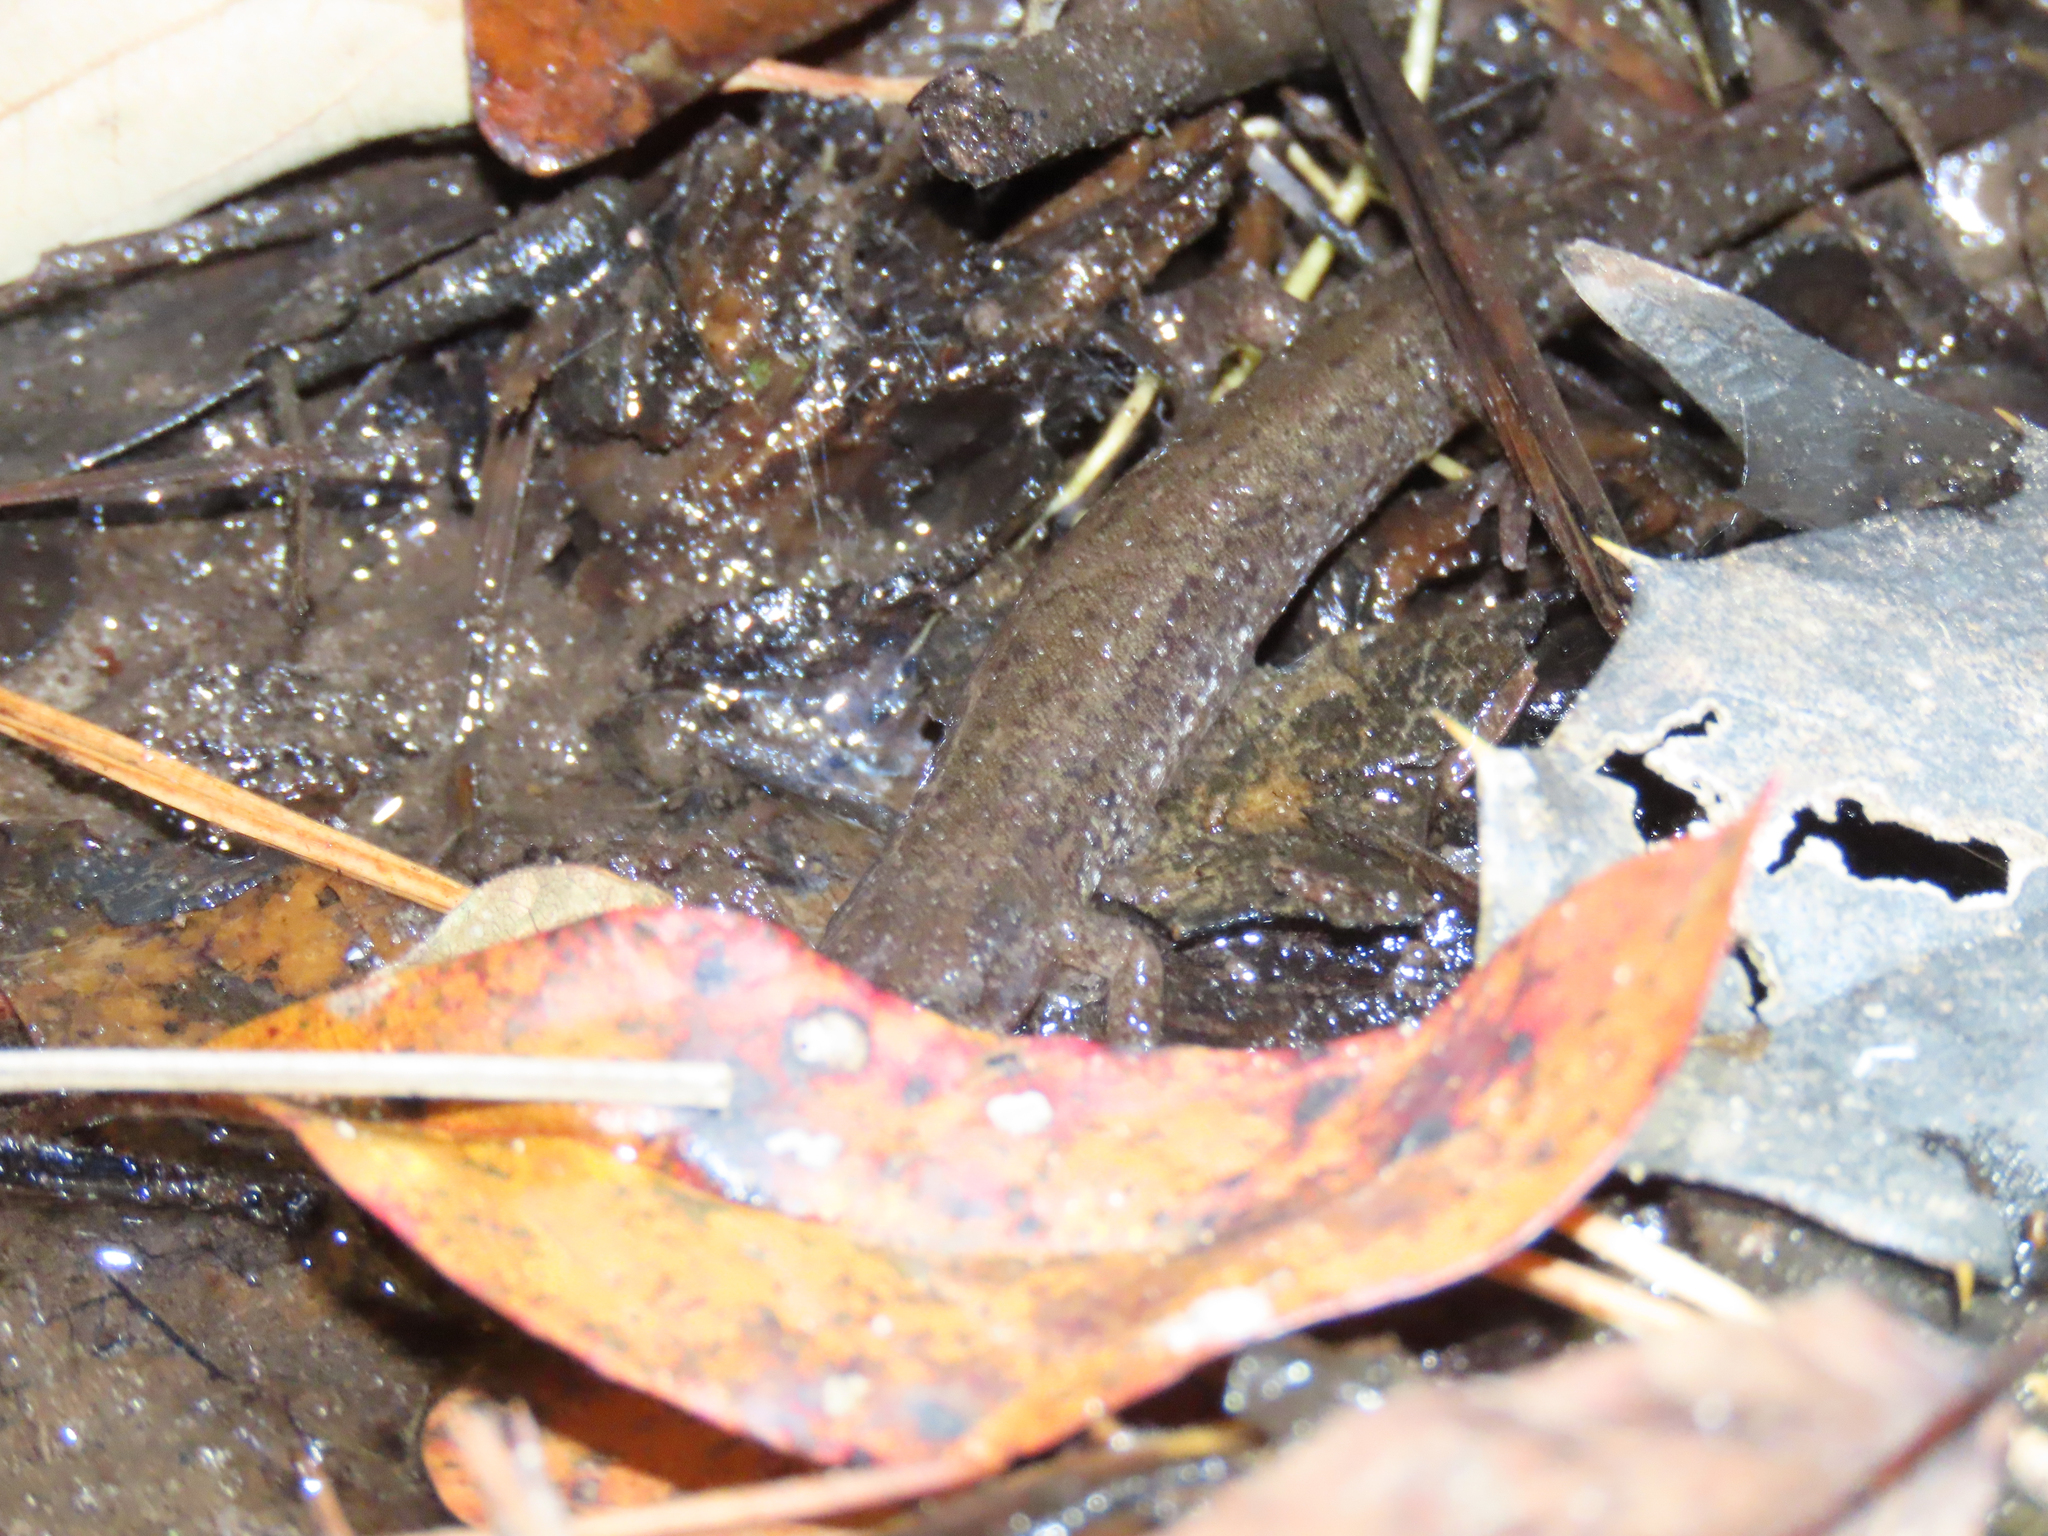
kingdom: Animalia
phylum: Chordata
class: Amphibia
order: Caudata
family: Plethodontidae
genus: Desmognathus
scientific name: Desmognathus fuscus
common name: Northern dusky salamander
